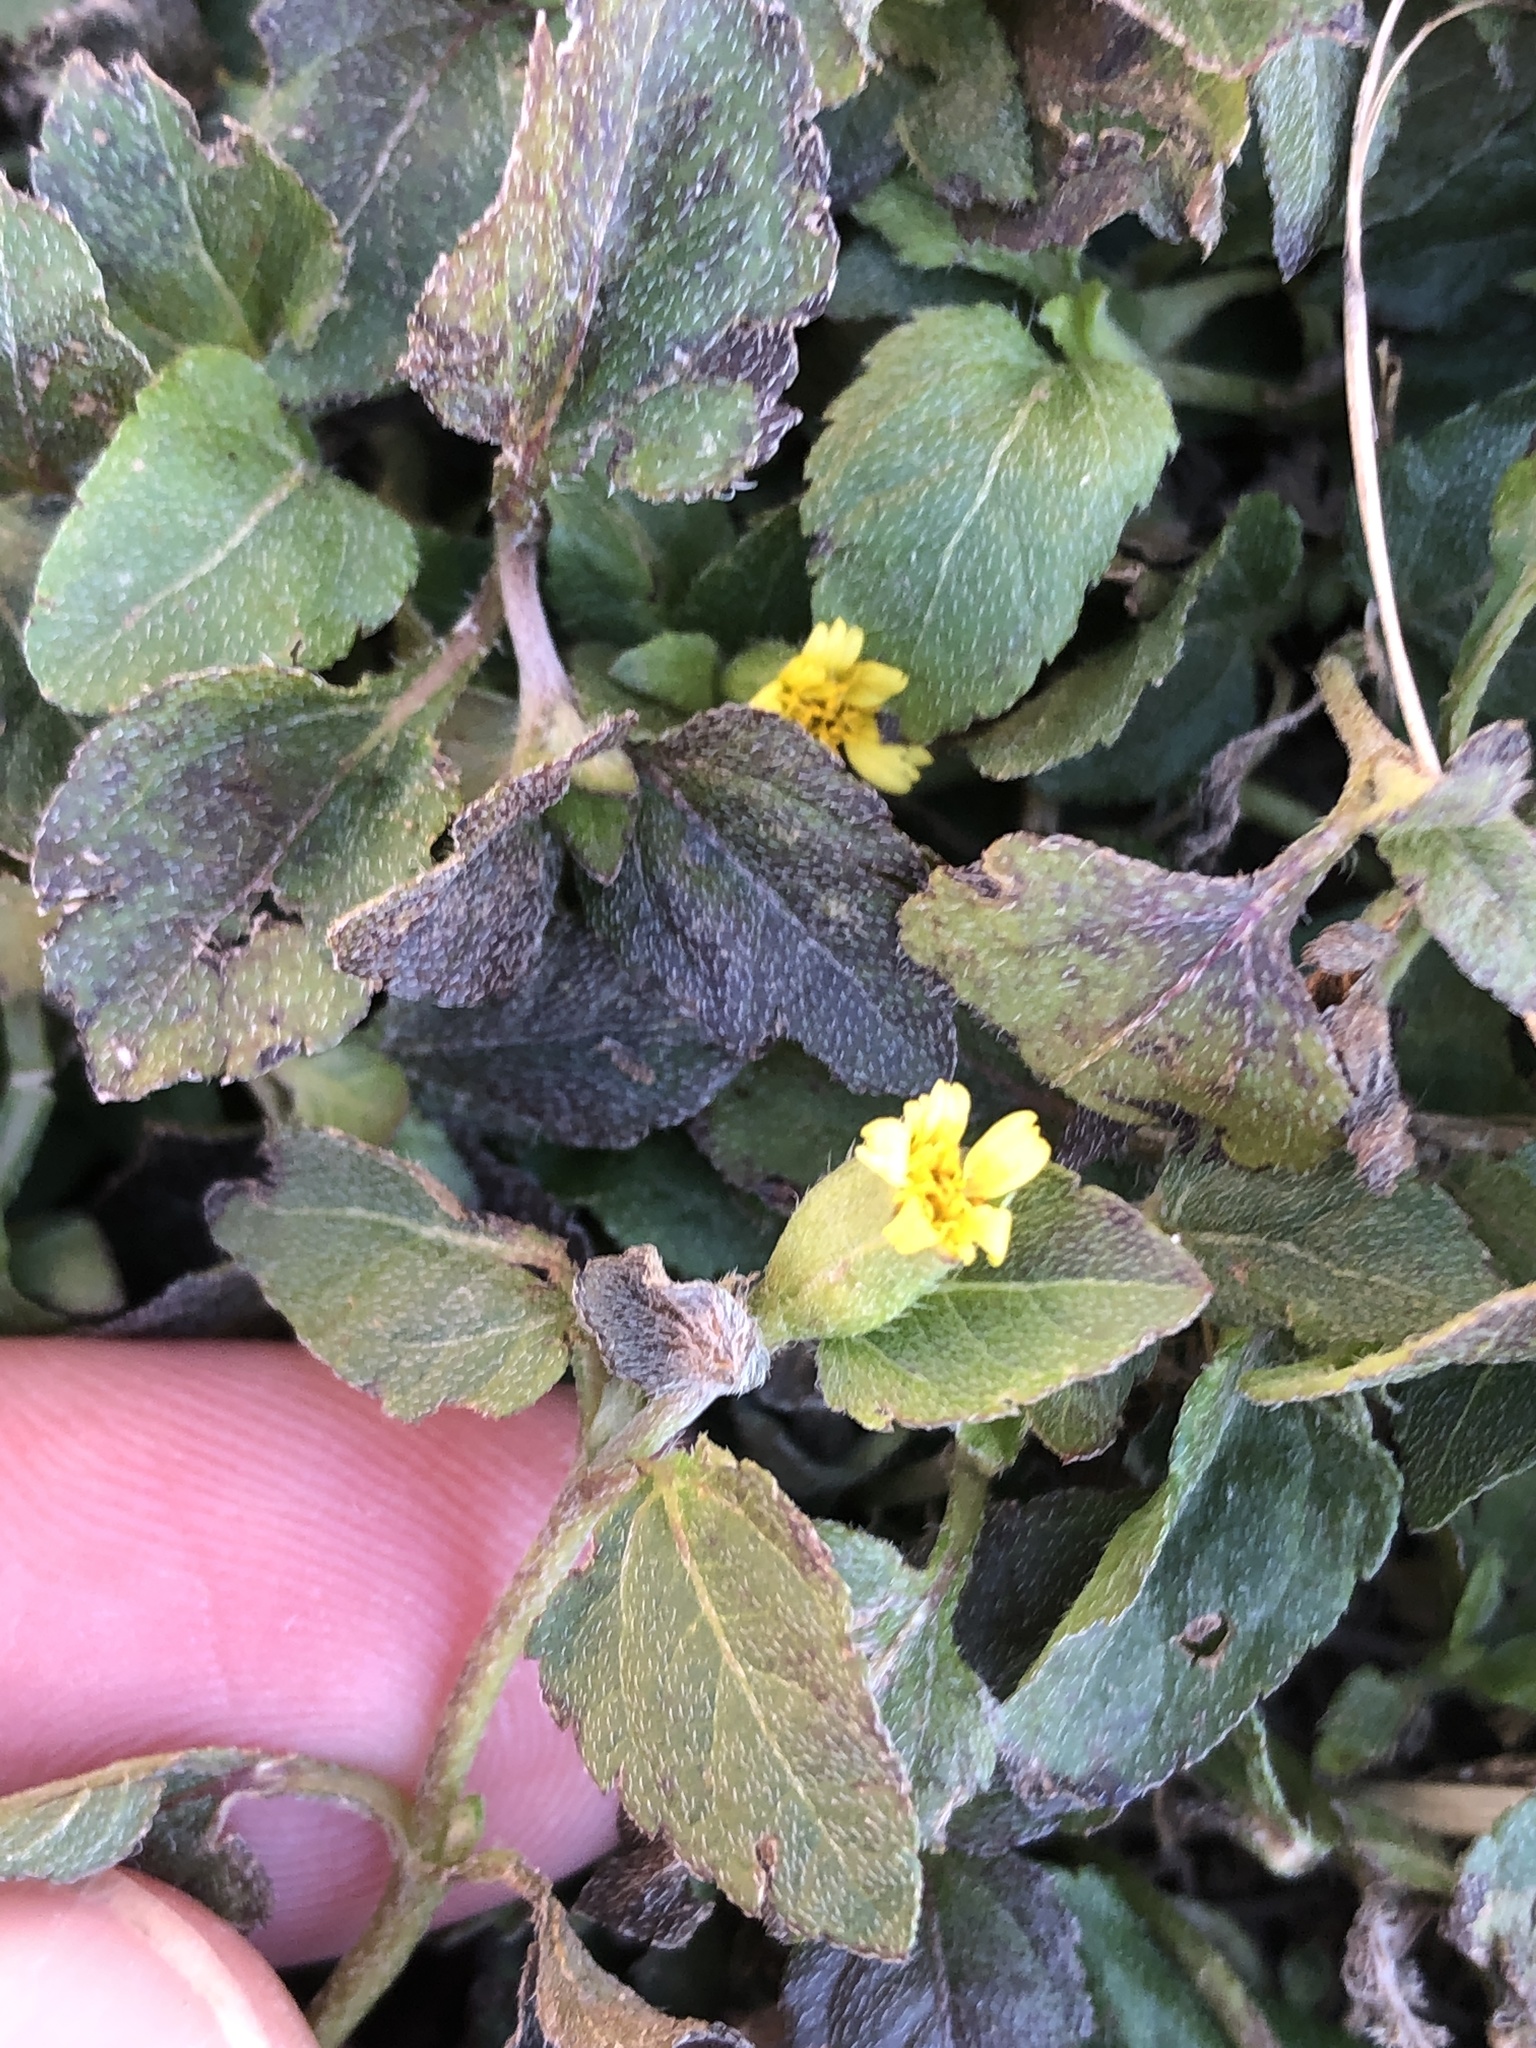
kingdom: Plantae
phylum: Tracheophyta
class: Magnoliopsida
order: Asterales
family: Asteraceae
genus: Calyptocarpus
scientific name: Calyptocarpus vialis
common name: Straggler daisy
